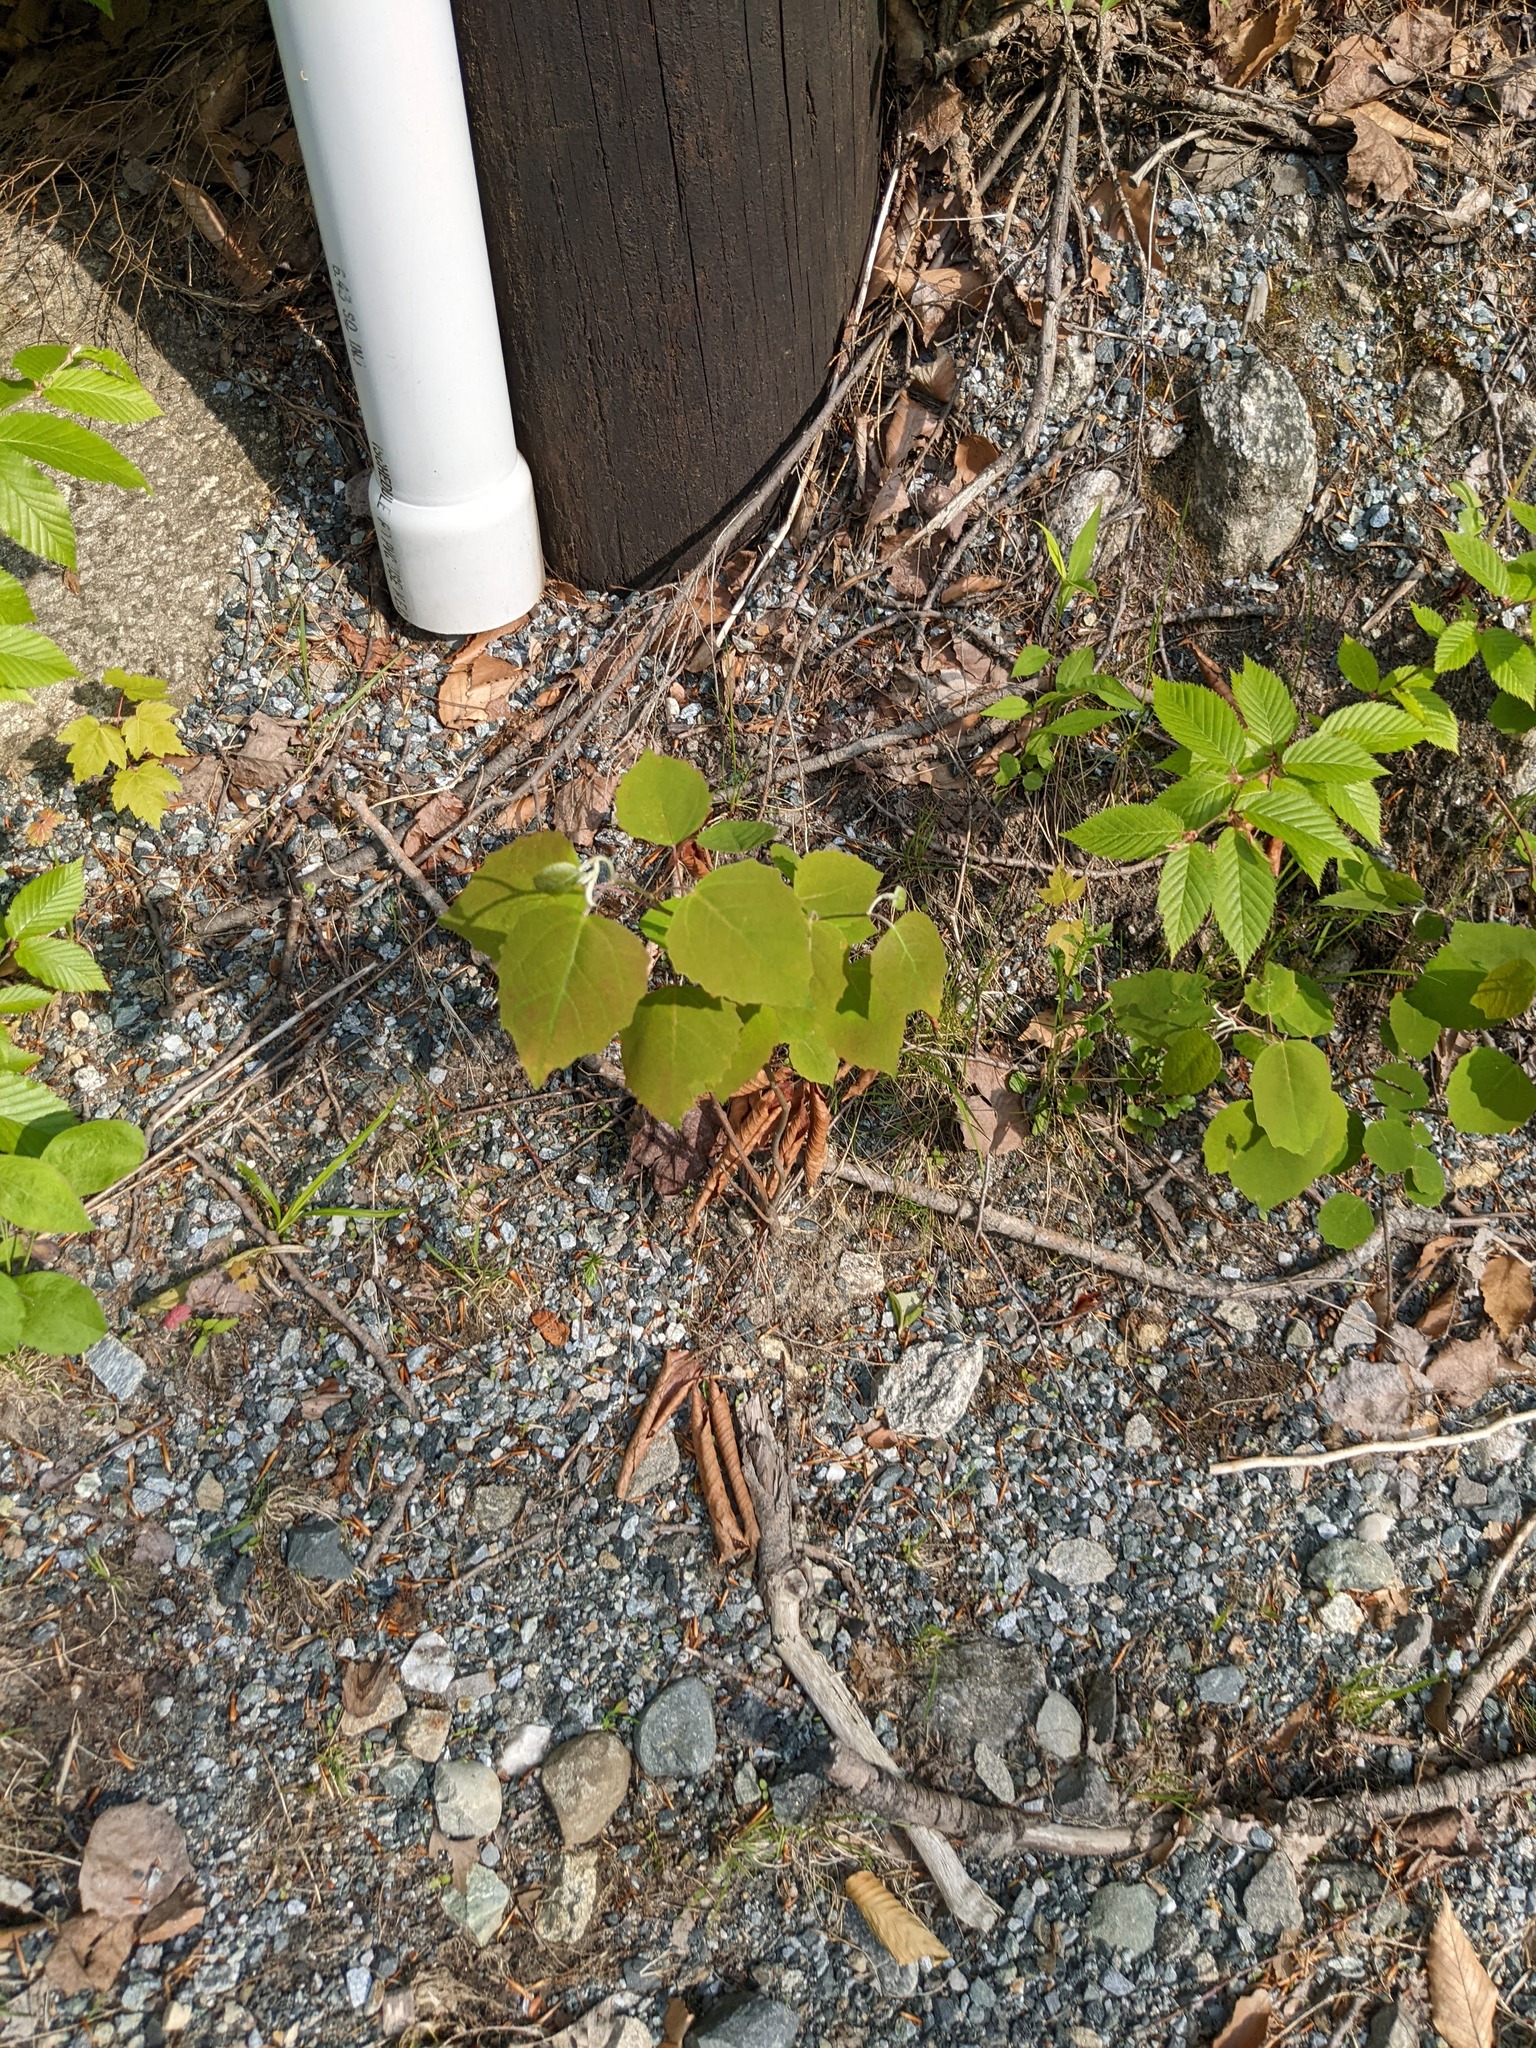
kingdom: Plantae
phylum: Tracheophyta
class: Magnoliopsida
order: Malpighiales
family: Salicaceae
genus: Populus
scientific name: Populus grandidentata
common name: Bigtooth aspen
